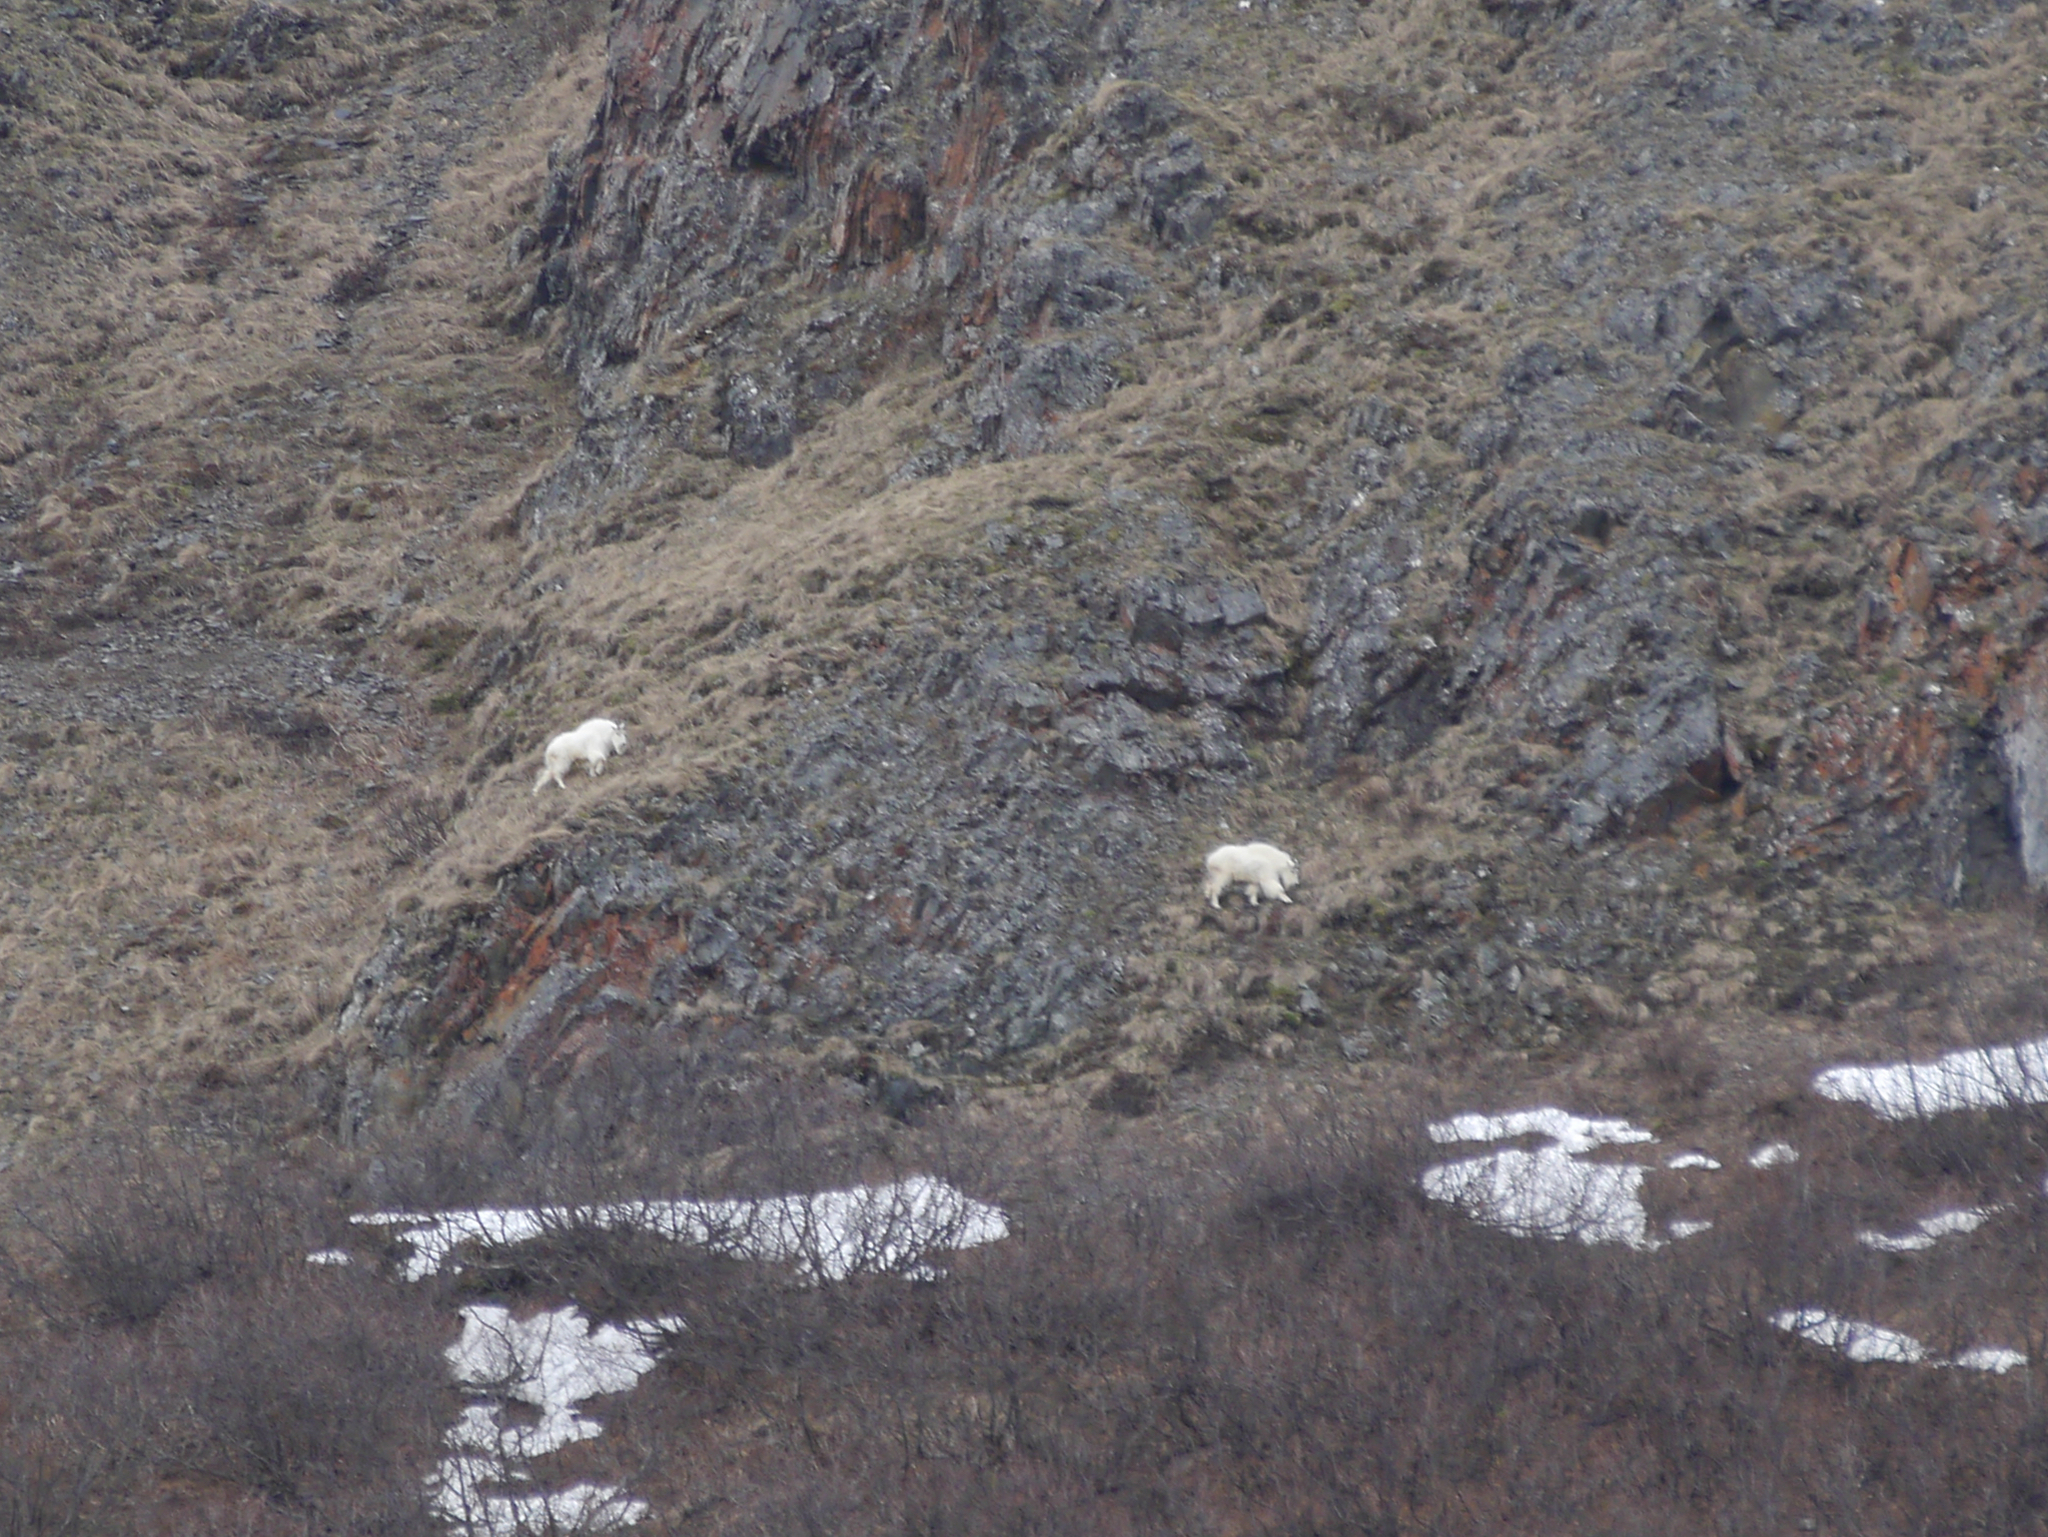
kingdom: Animalia
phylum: Chordata
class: Mammalia
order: Artiodactyla
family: Bovidae
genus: Oreamnos
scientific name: Oreamnos americanus
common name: Mountain goat
